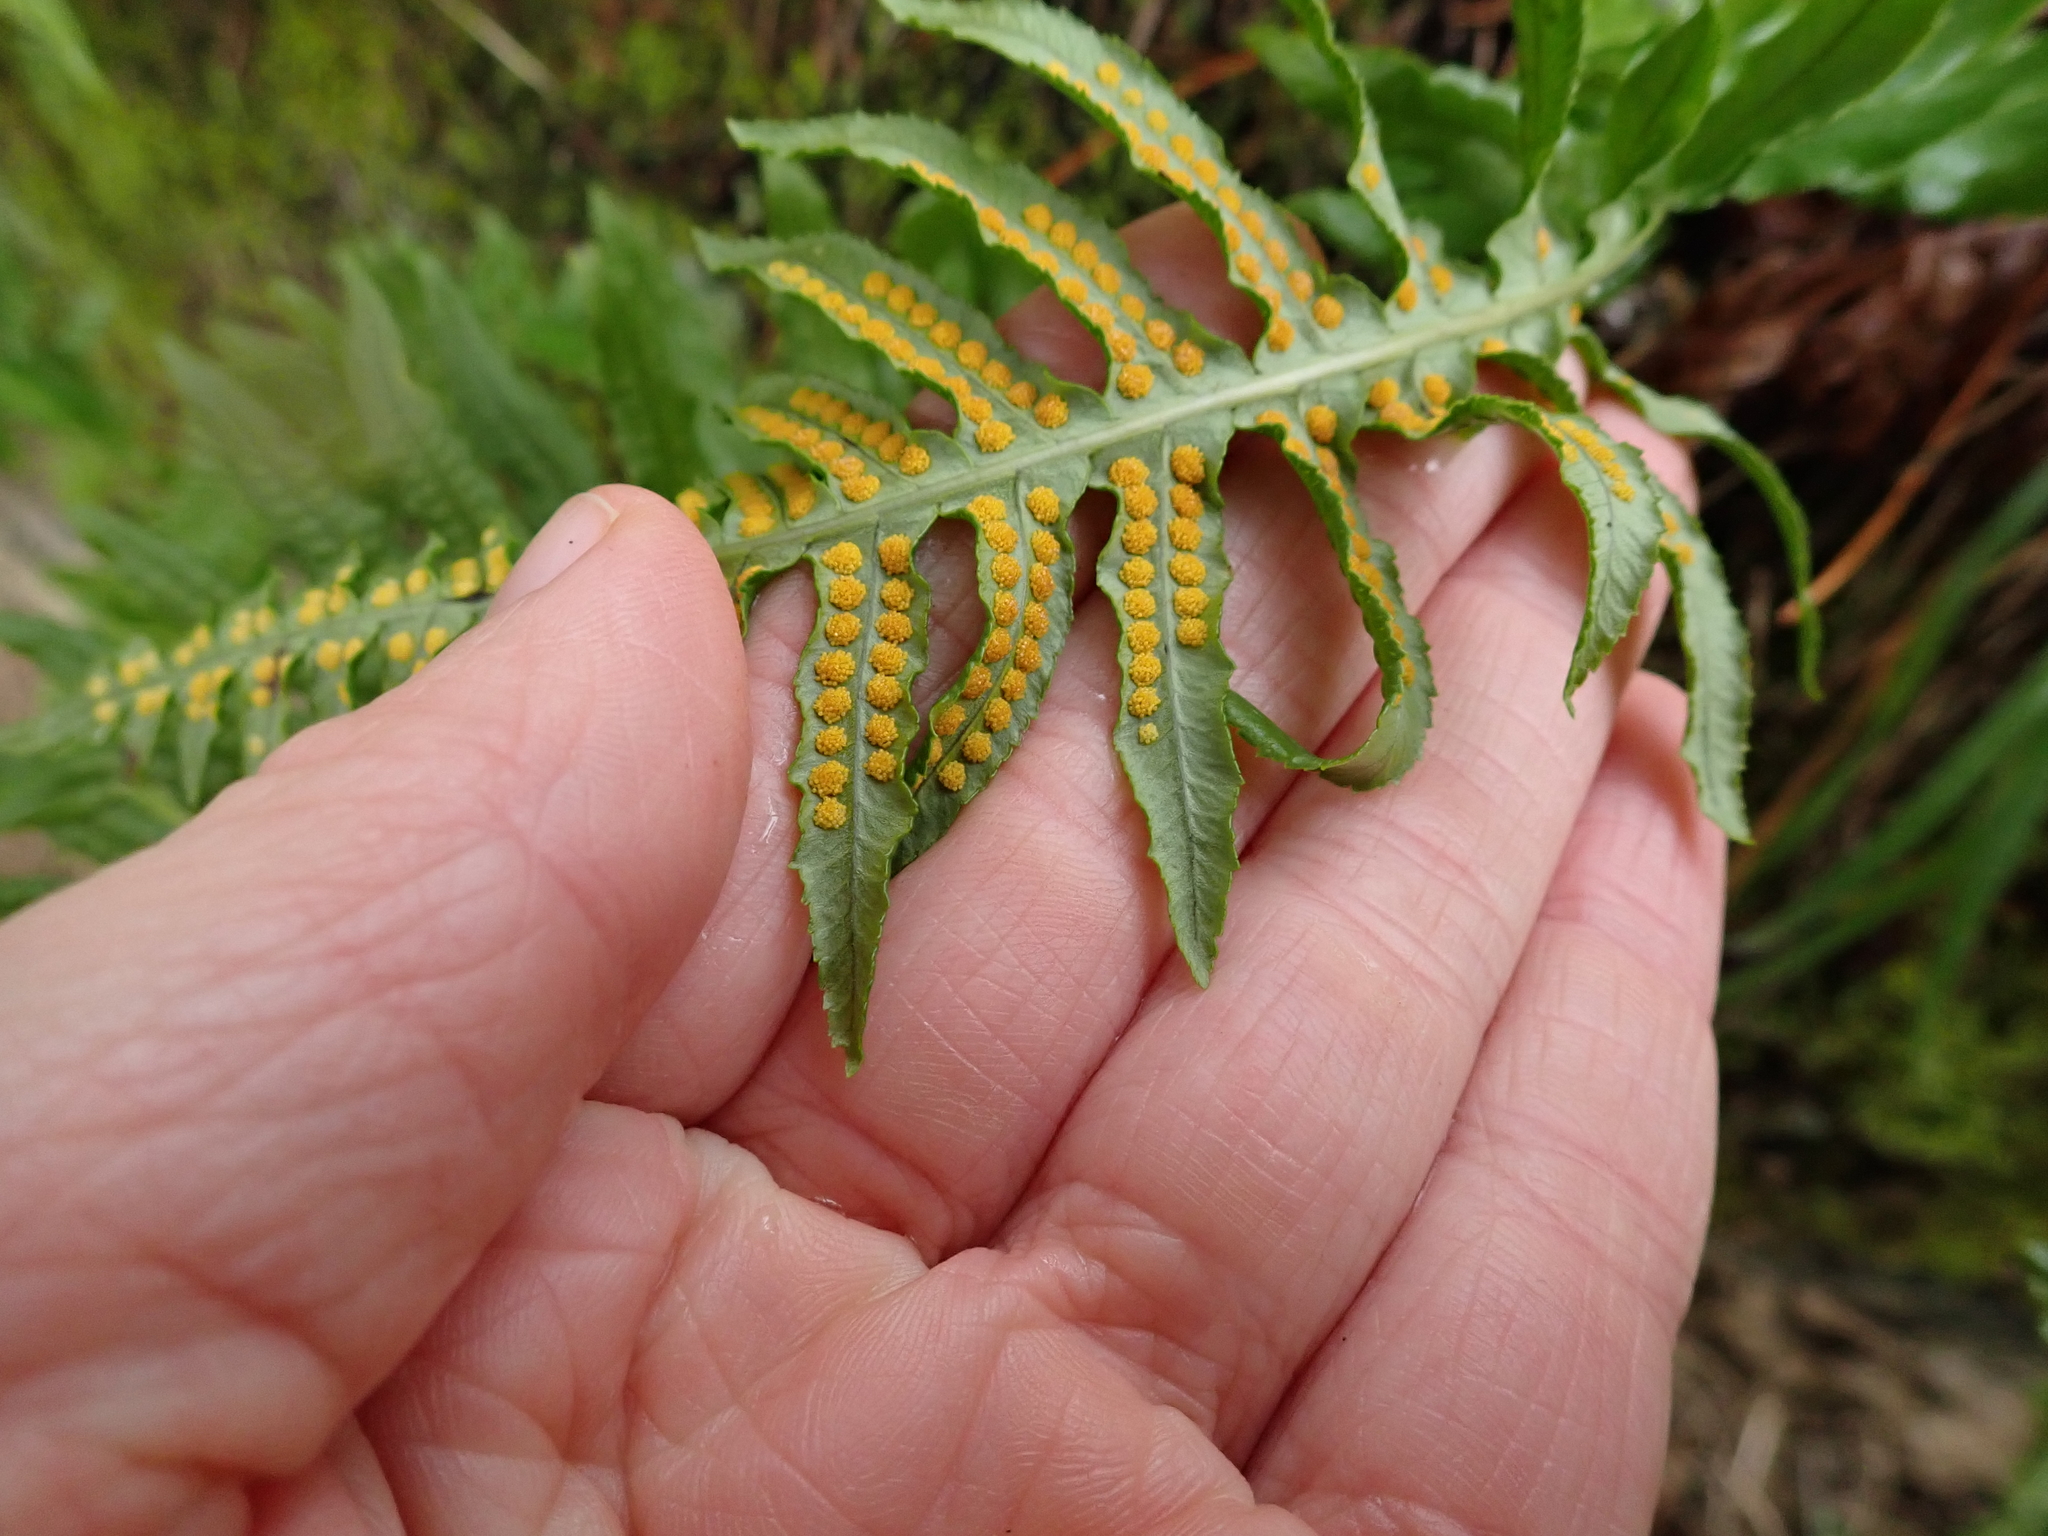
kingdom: Plantae
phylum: Tracheophyta
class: Polypodiopsida
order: Polypodiales
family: Polypodiaceae
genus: Polypodium
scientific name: Polypodium glycyrrhiza
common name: Licorice fern
